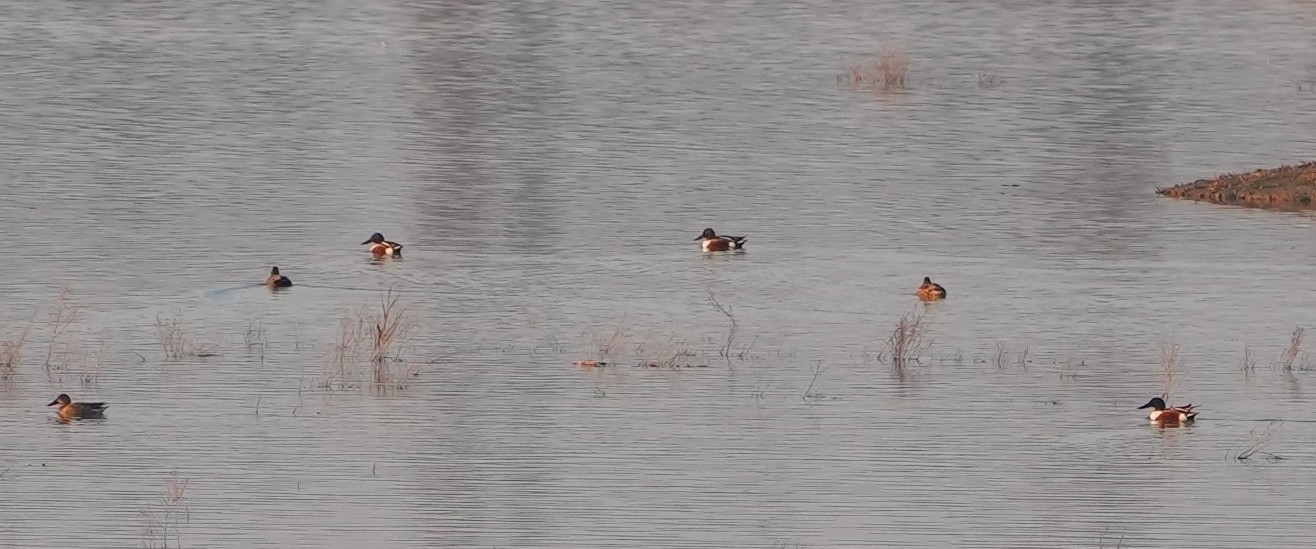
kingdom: Animalia
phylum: Chordata
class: Aves
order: Anseriformes
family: Anatidae
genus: Spatula
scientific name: Spatula clypeata
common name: Northern shoveler
